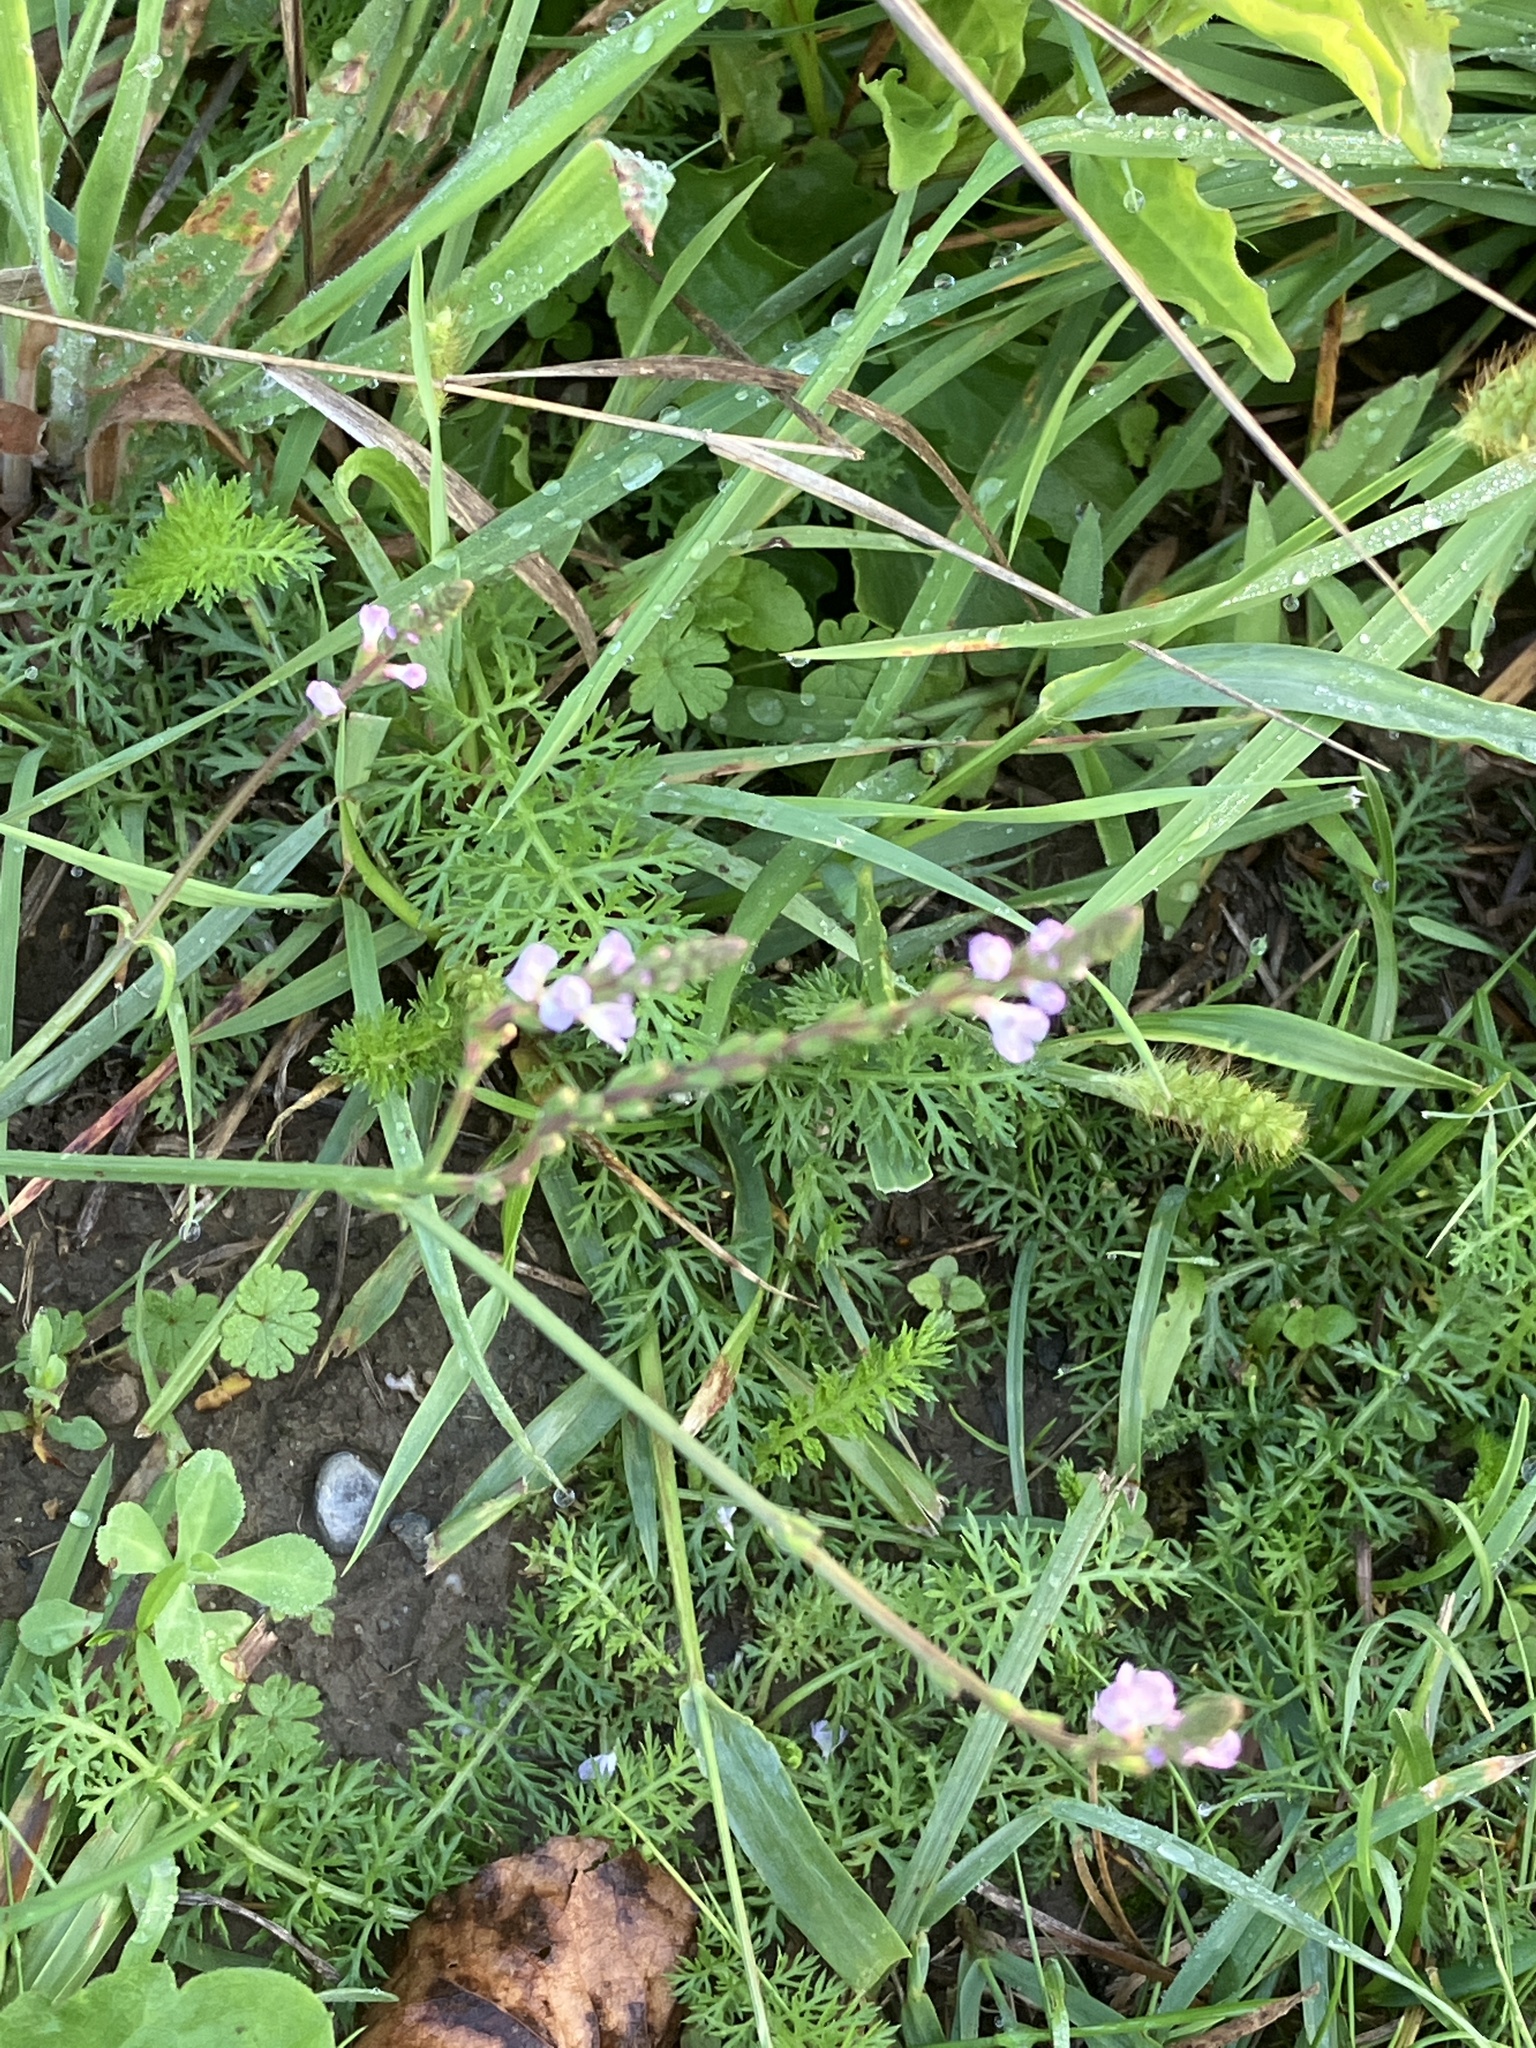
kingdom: Plantae
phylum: Tracheophyta
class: Magnoliopsida
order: Lamiales
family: Verbenaceae
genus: Verbena
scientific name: Verbena officinalis
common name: Vervain
